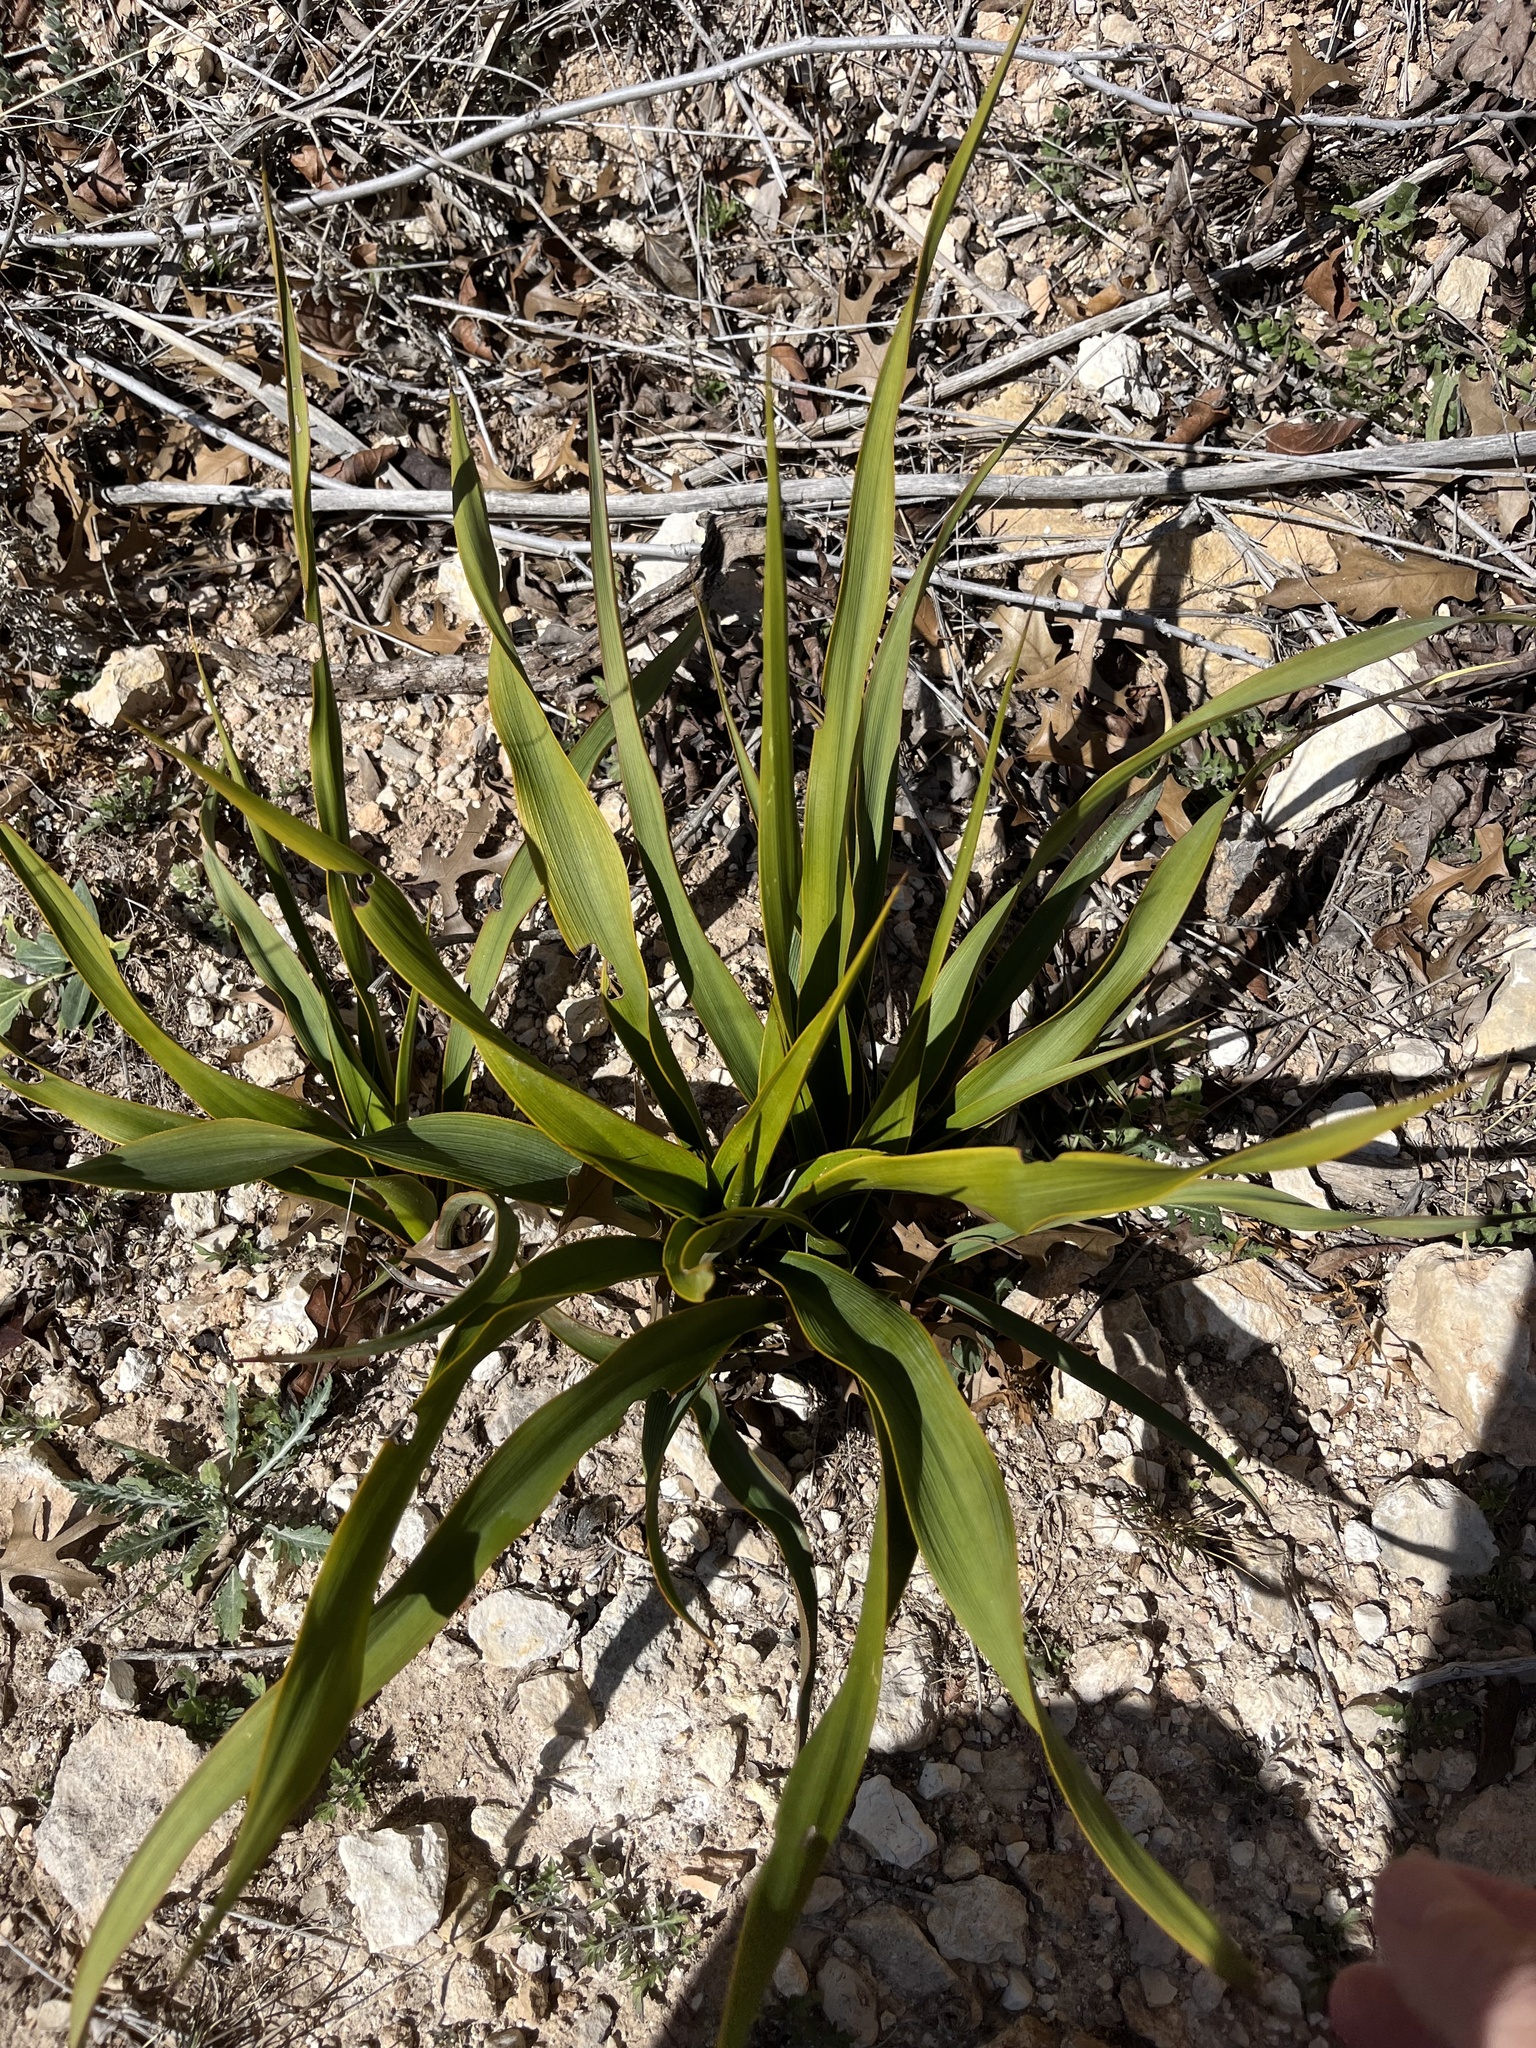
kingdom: Plantae
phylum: Tracheophyta
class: Liliopsida
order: Asparagales
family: Asparagaceae
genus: Yucca
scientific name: Yucca rupicola
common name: Twisted-leaf spanish-dagger
